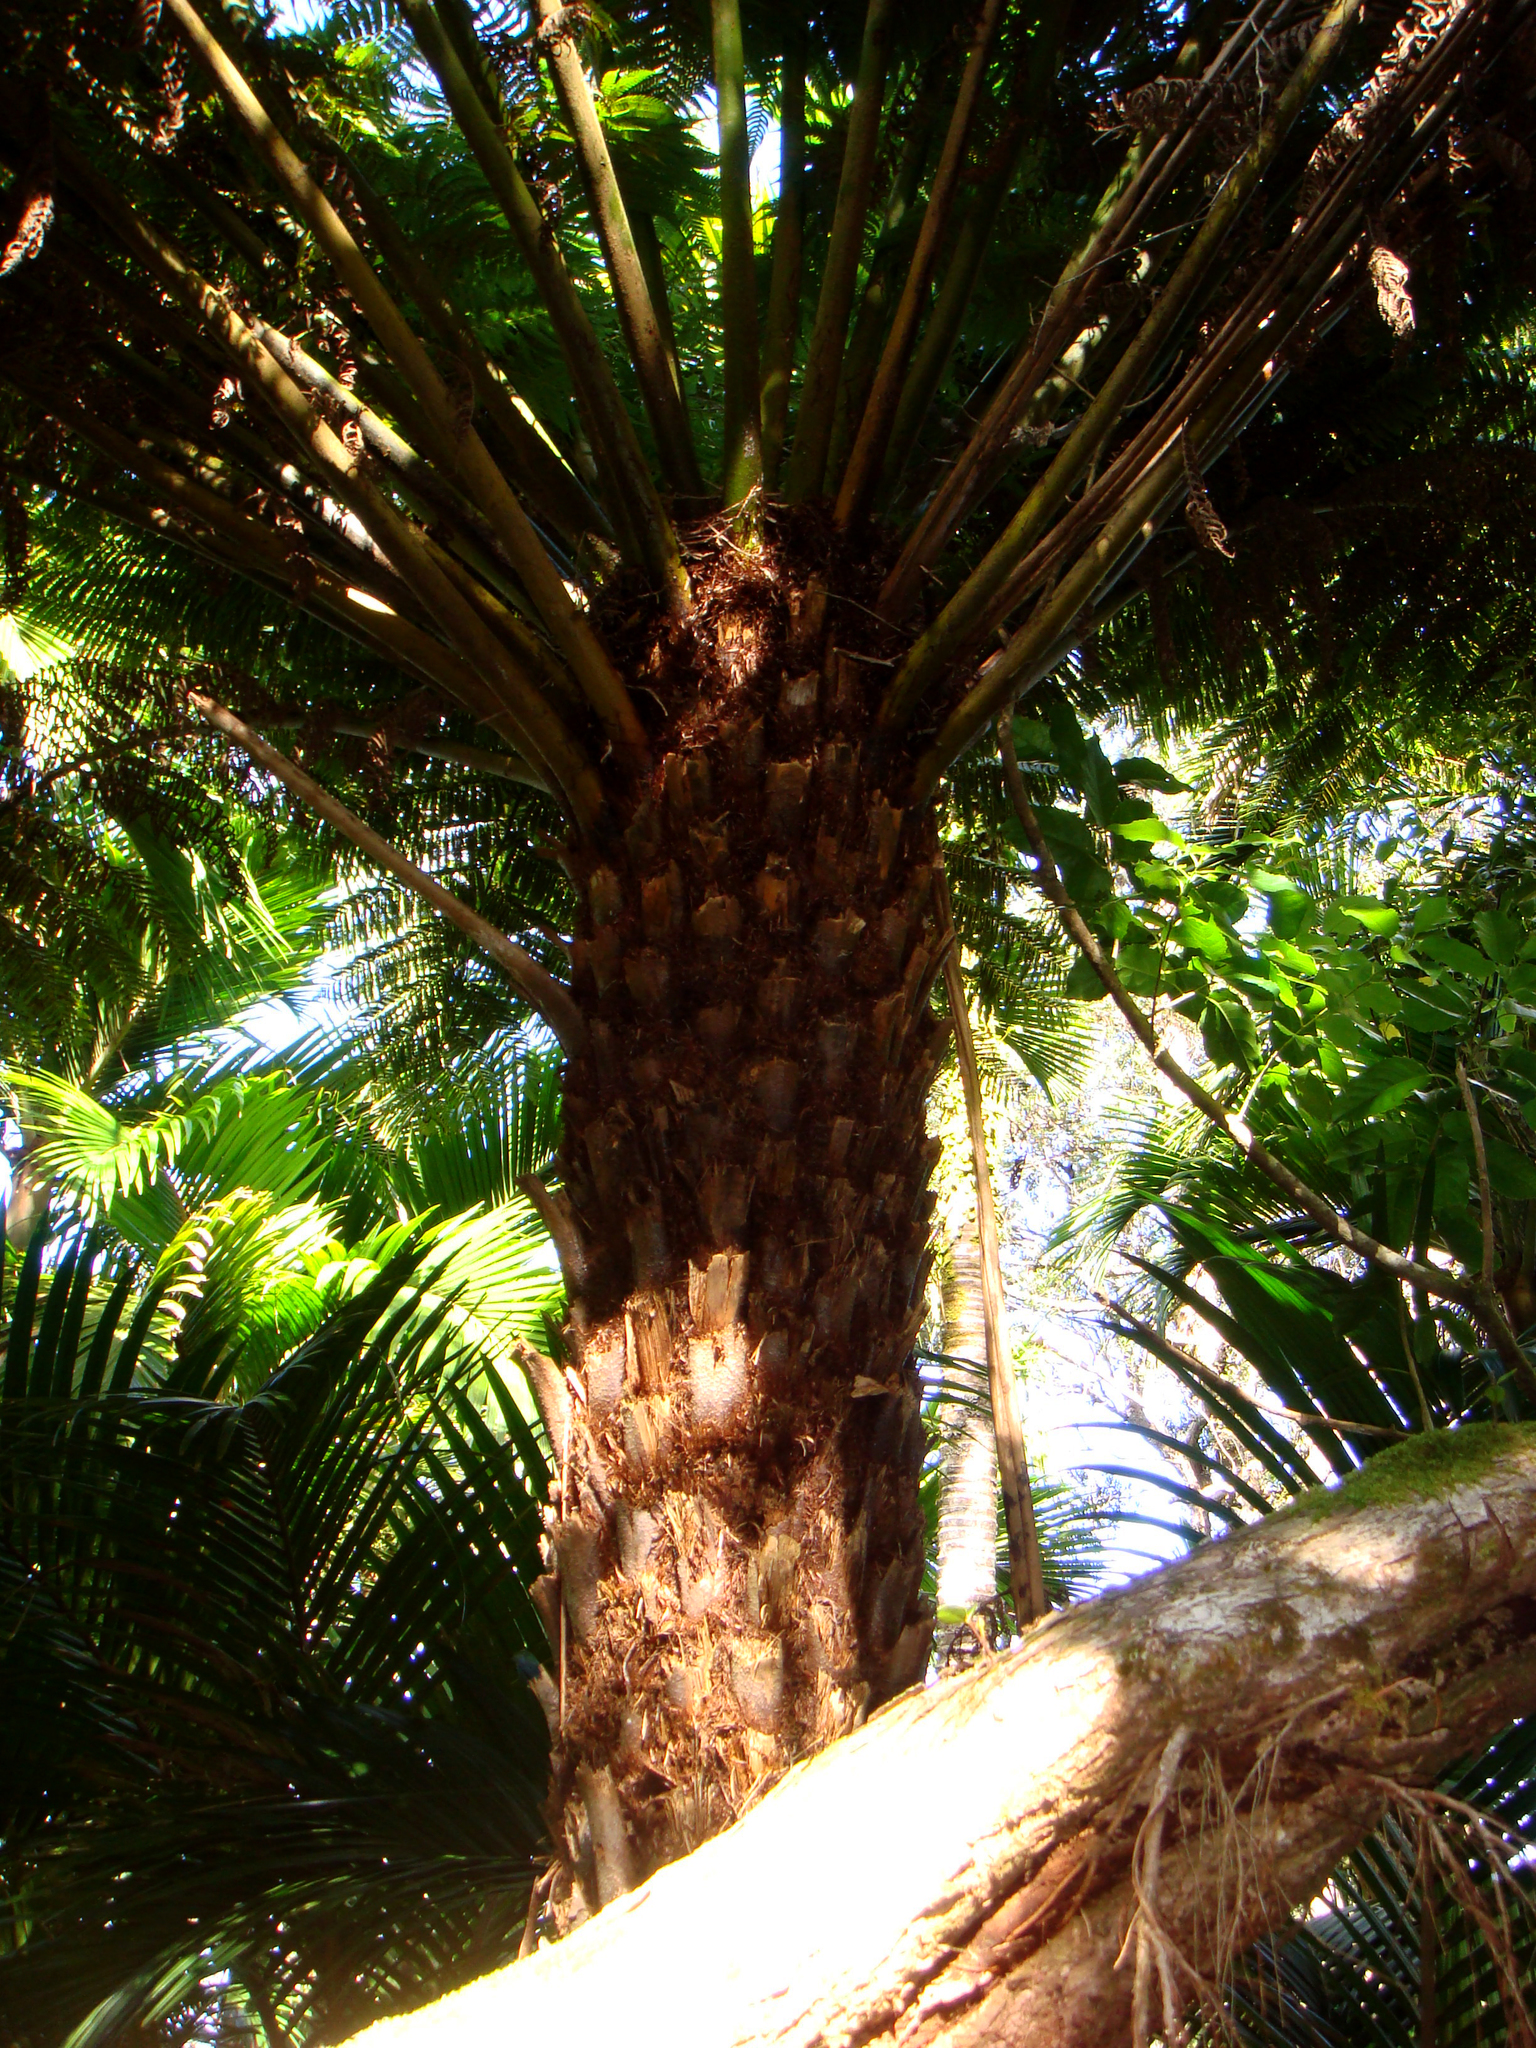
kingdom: Plantae
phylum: Tracheophyta
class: Polypodiopsida
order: Cyatheales
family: Cyatheaceae
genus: Alsophila
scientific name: Alsophila milnei
